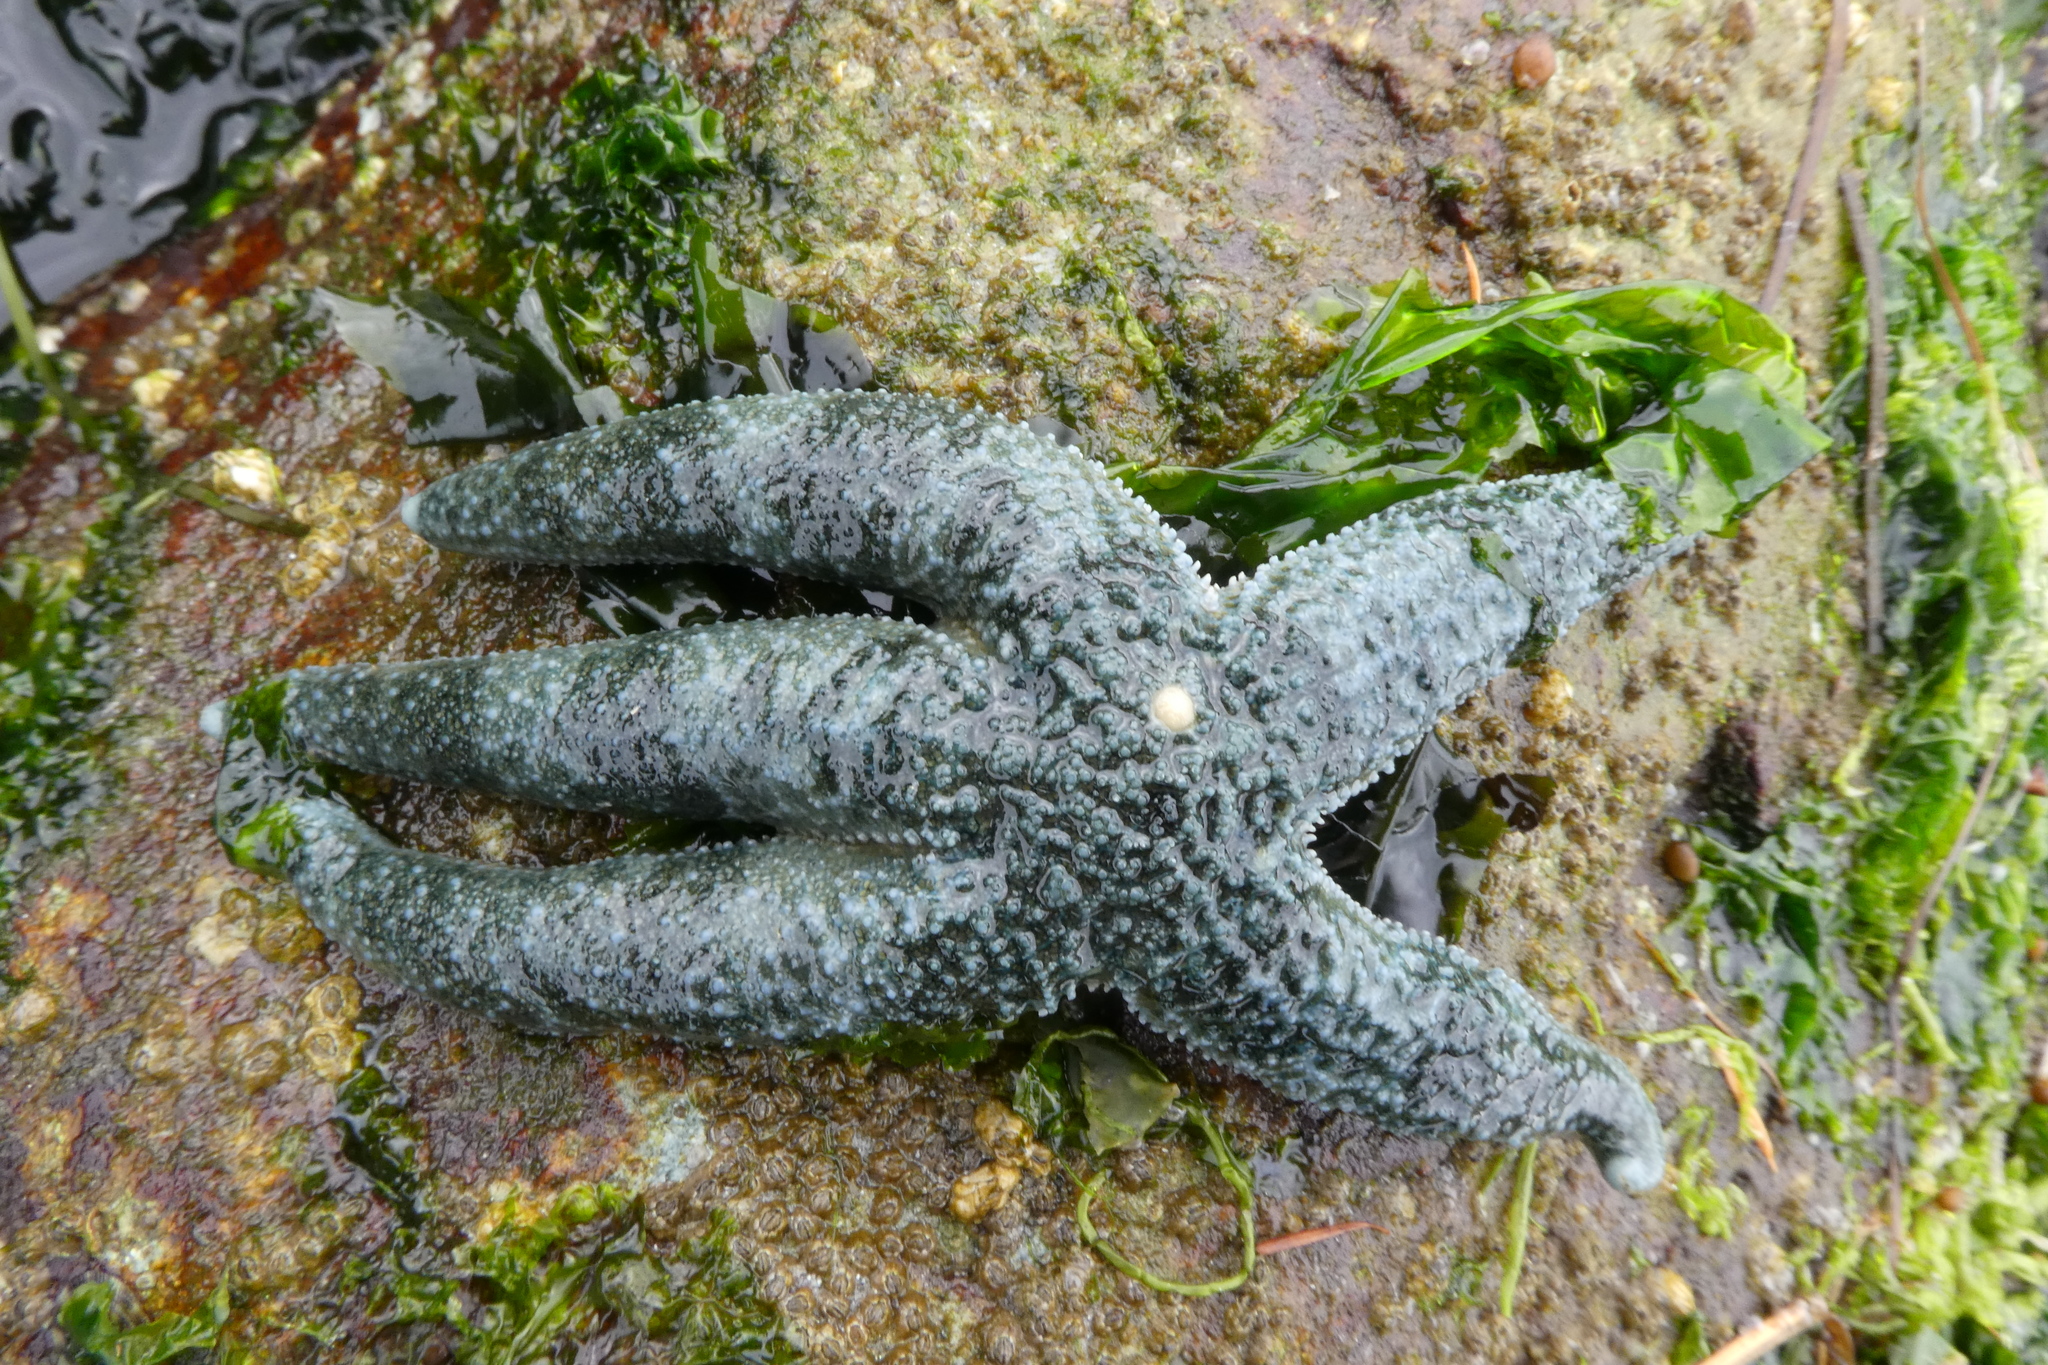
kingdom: Animalia
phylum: Echinodermata
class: Asteroidea
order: Forcipulatida
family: Asteriidae
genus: Evasterias
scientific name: Evasterias troschelii
